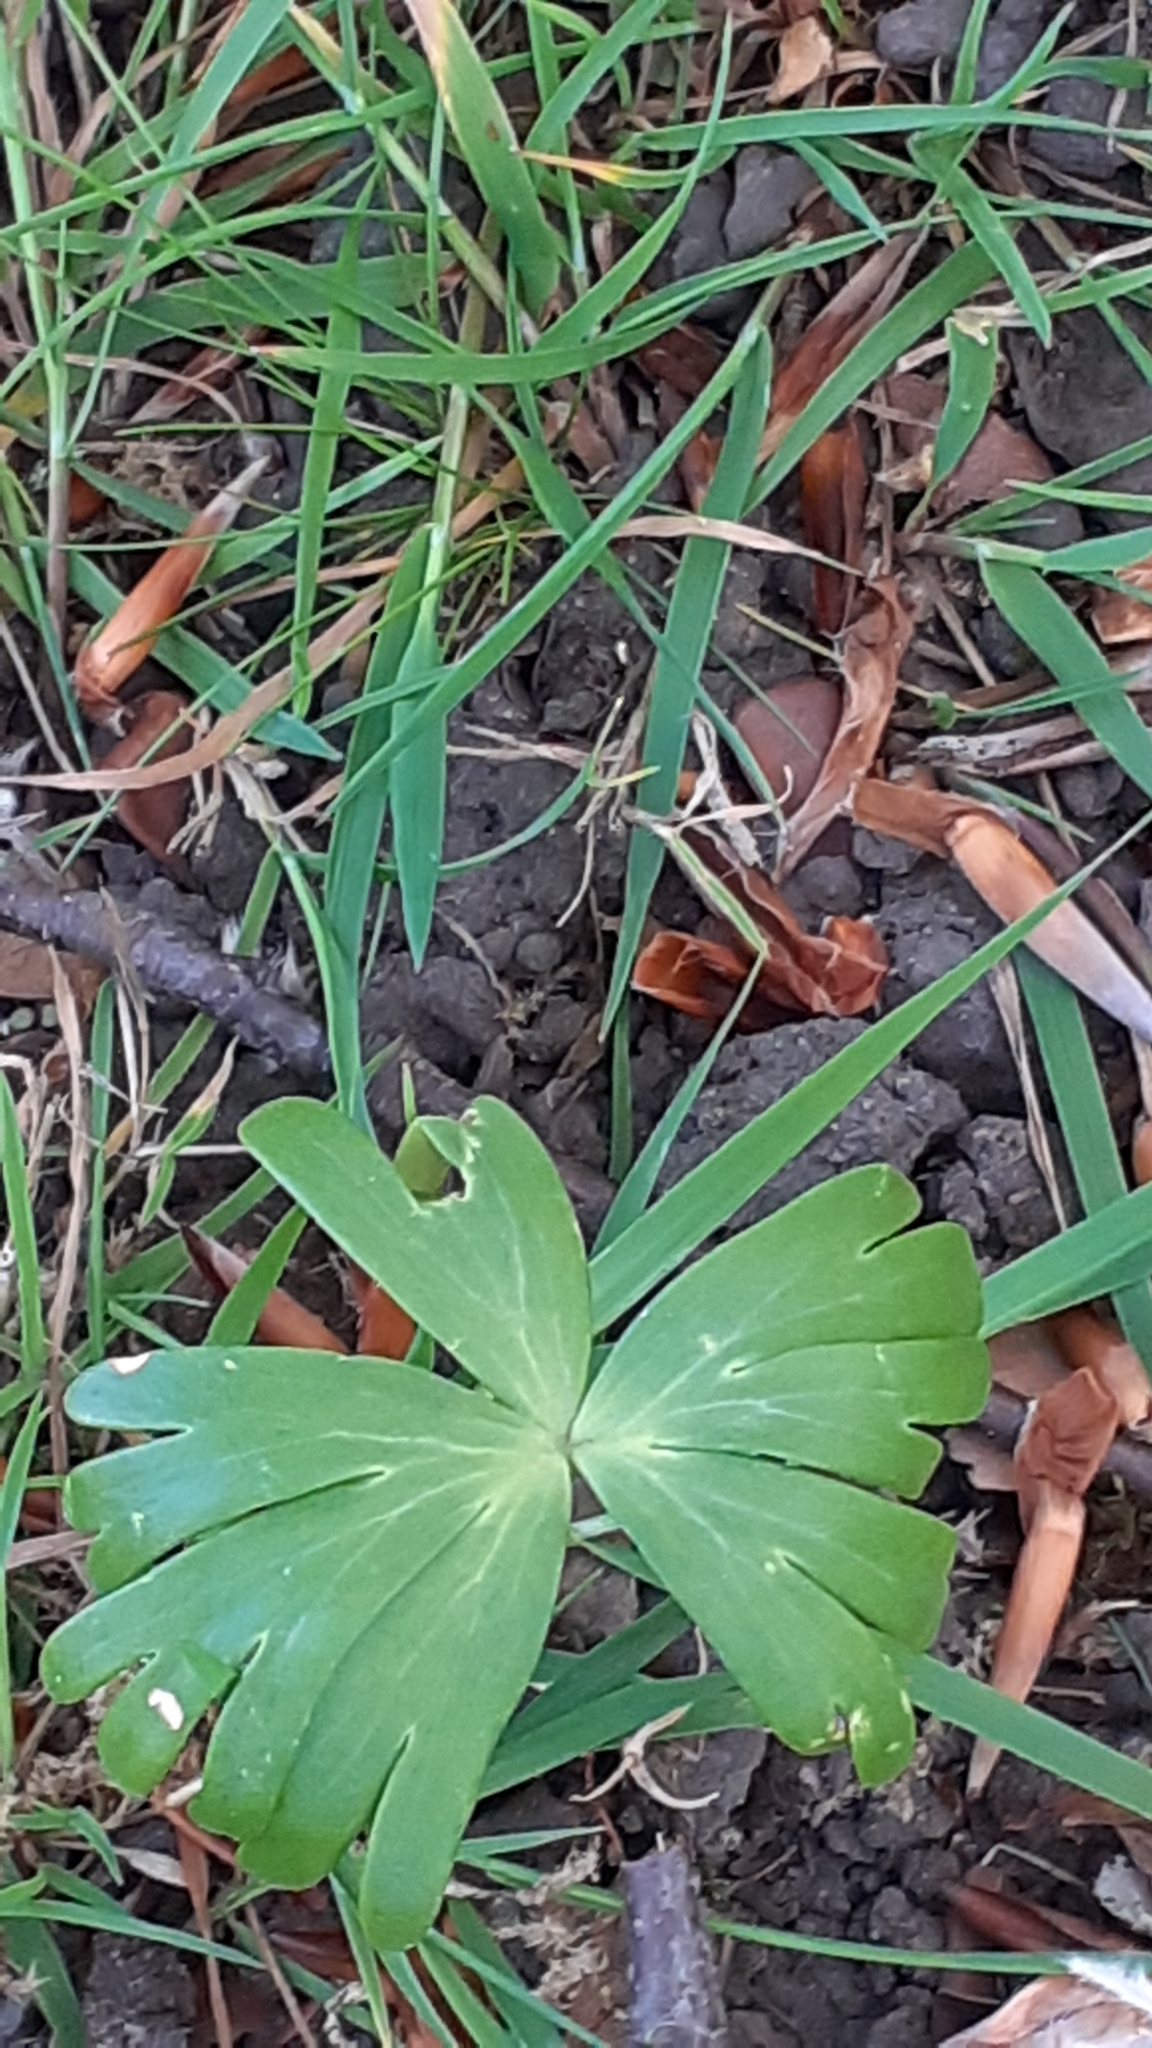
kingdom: Plantae
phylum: Tracheophyta
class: Magnoliopsida
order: Ranunculales
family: Ranunculaceae
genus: Eranthis
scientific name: Eranthis hyemalis
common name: Winter aconite
